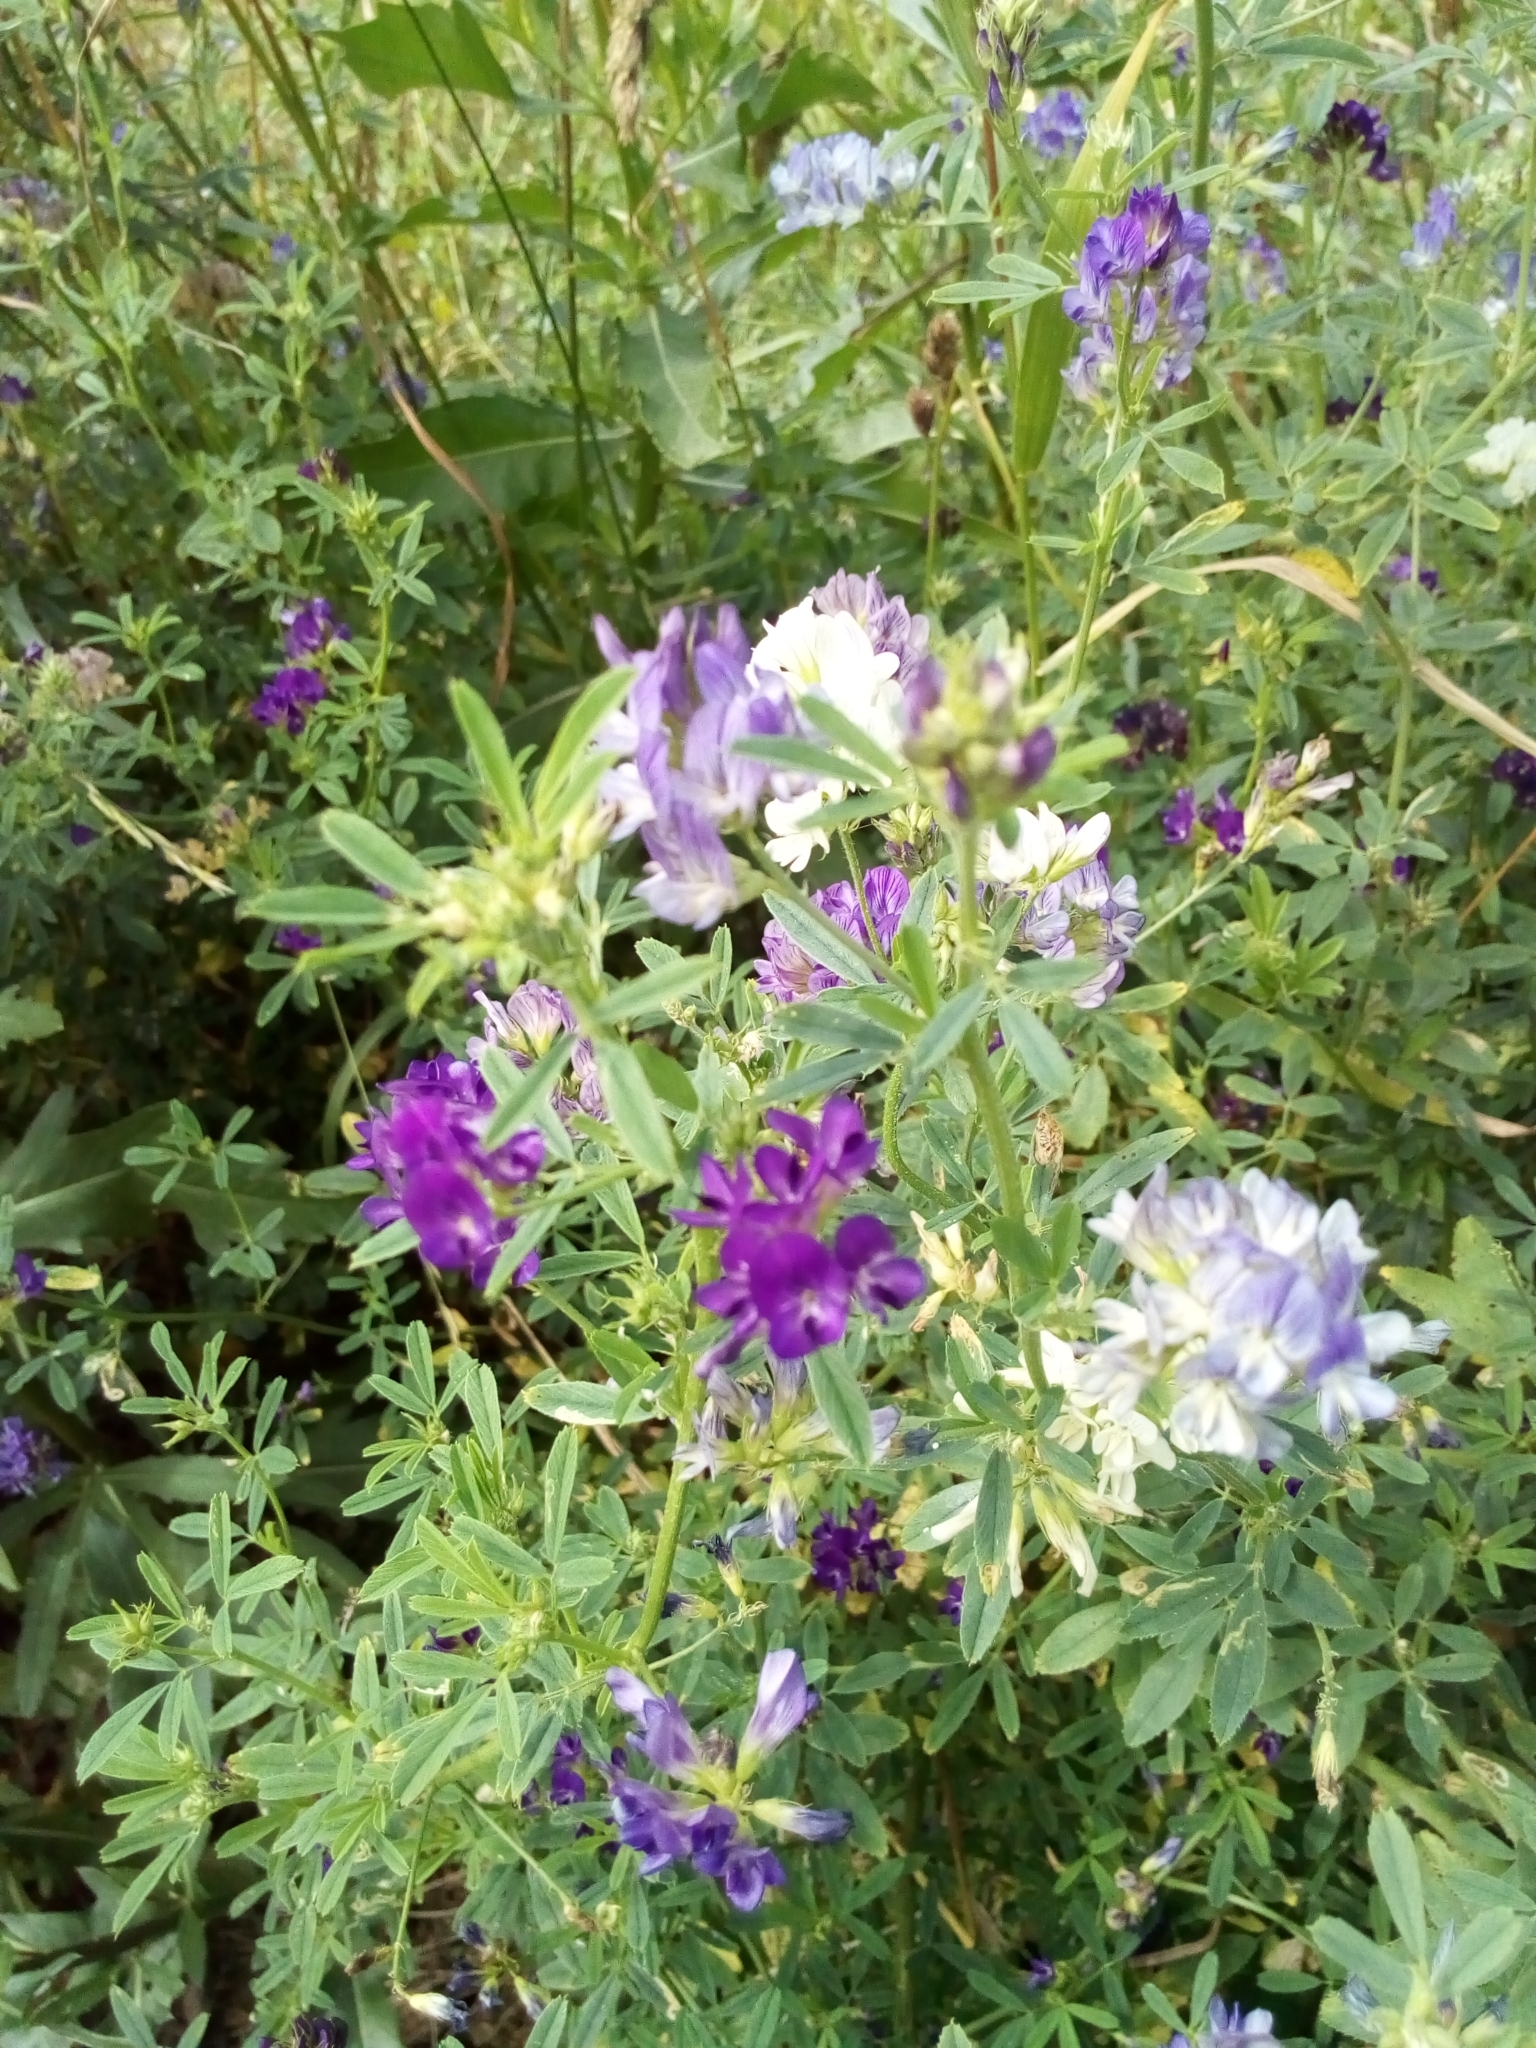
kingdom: Plantae
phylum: Tracheophyta
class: Magnoliopsida
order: Fabales
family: Fabaceae
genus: Medicago
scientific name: Medicago varia
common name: Sand lucerne
